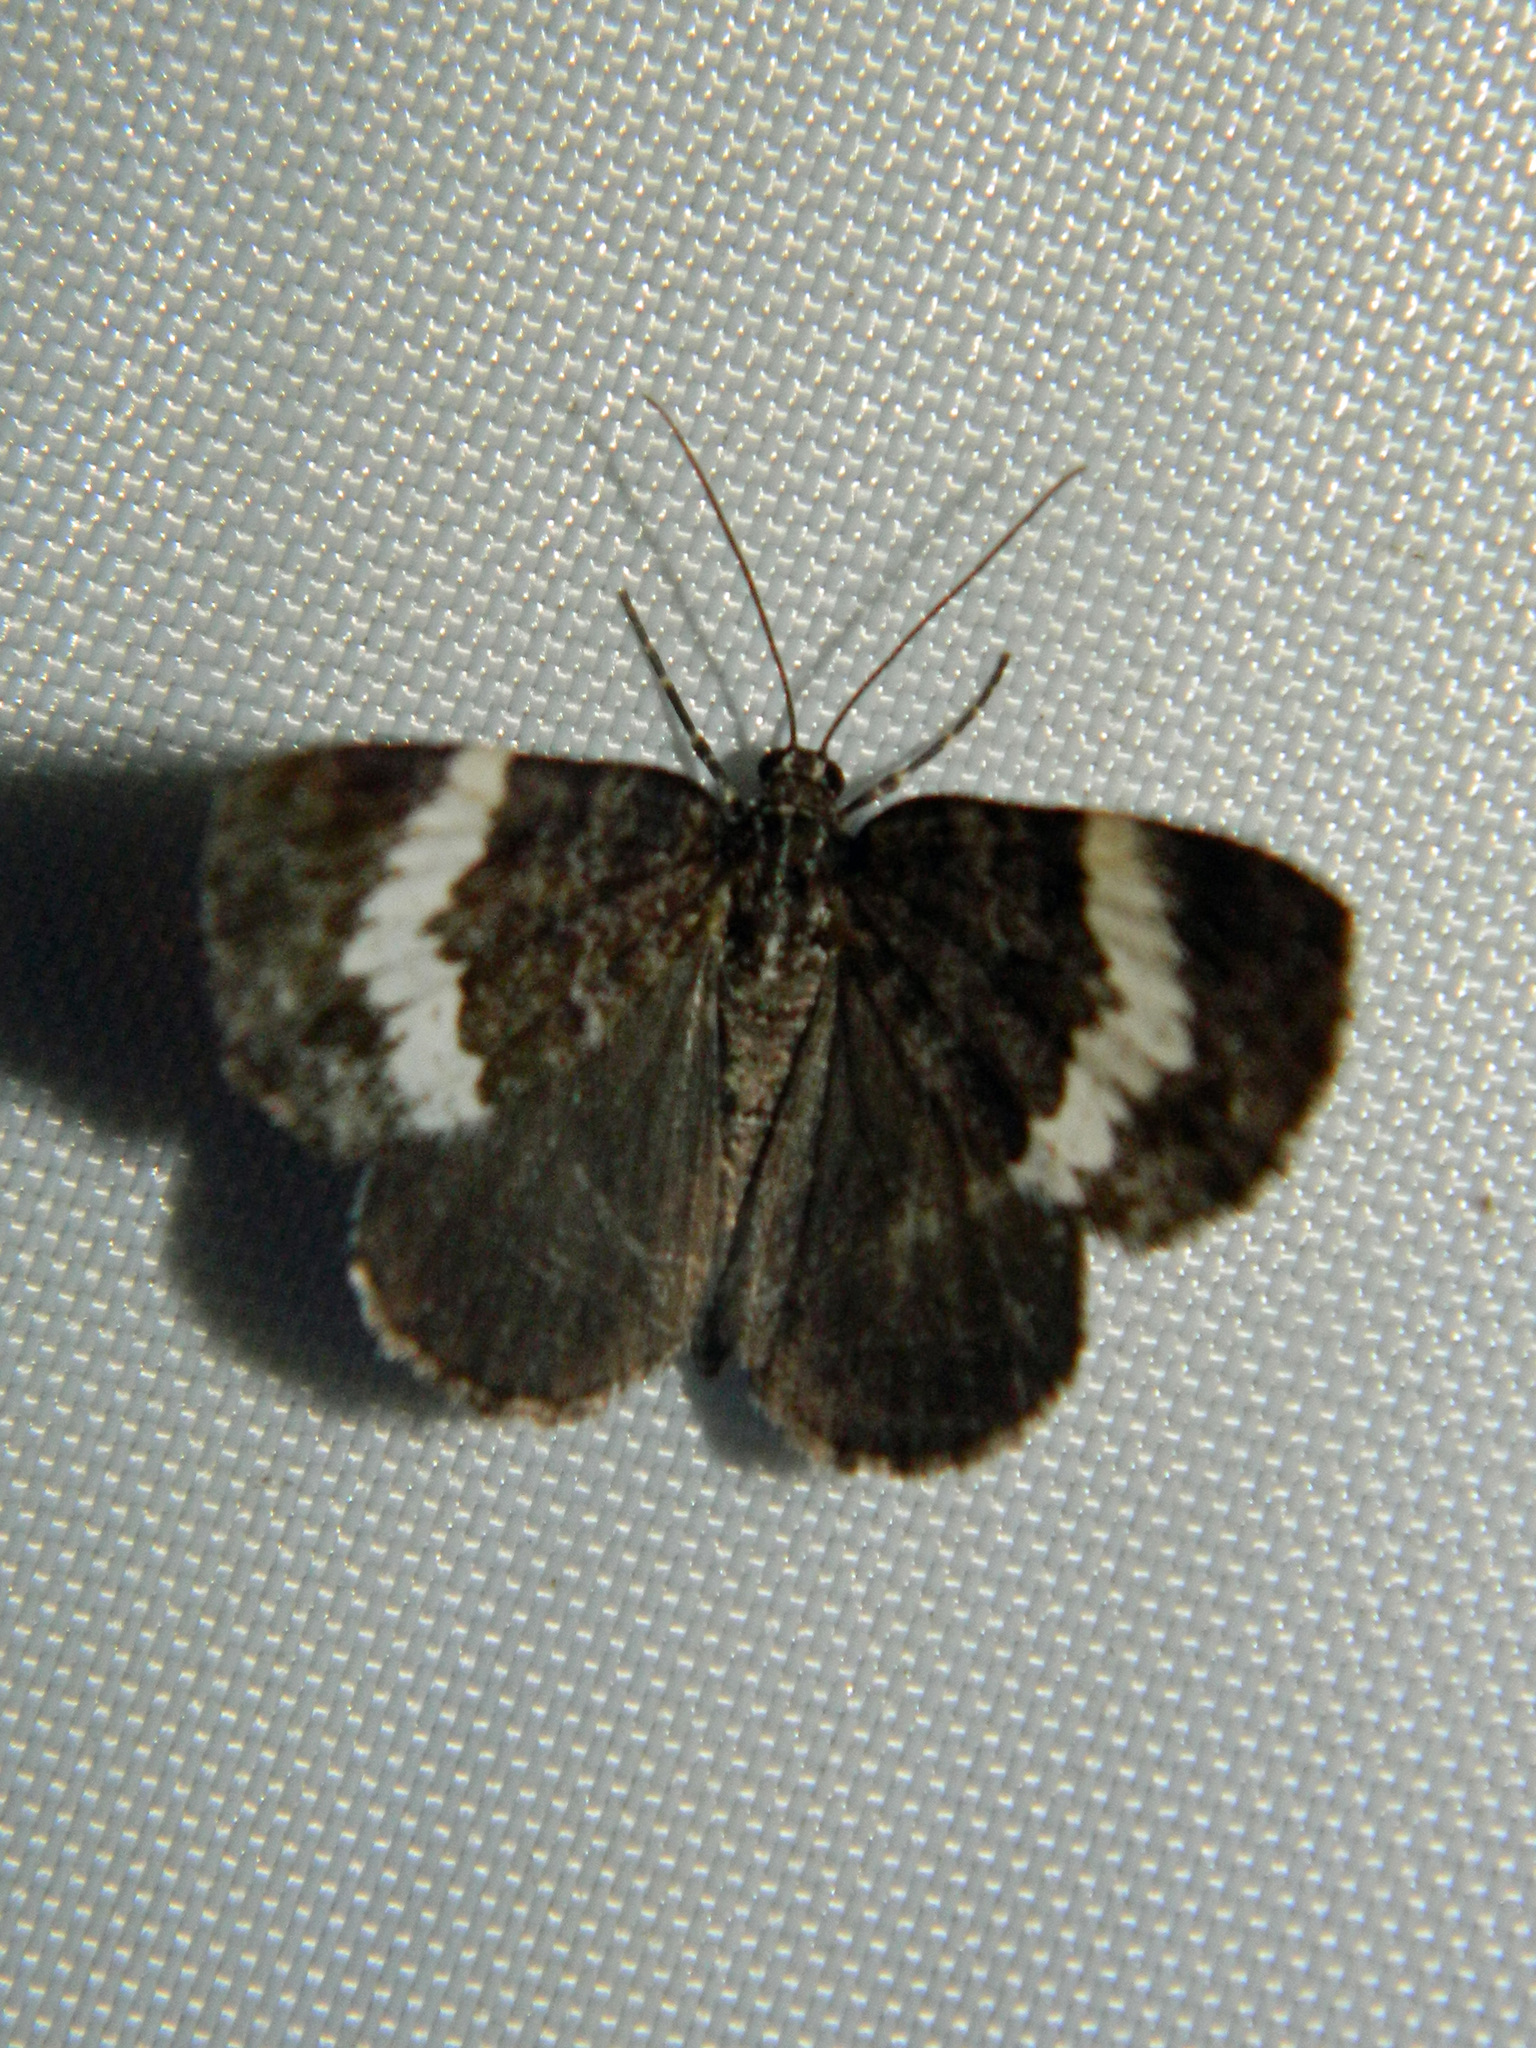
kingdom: Animalia
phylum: Arthropoda
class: Insecta
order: Lepidoptera
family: Geometridae
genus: Spargania
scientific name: Spargania luctuata
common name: White-banded carpet
